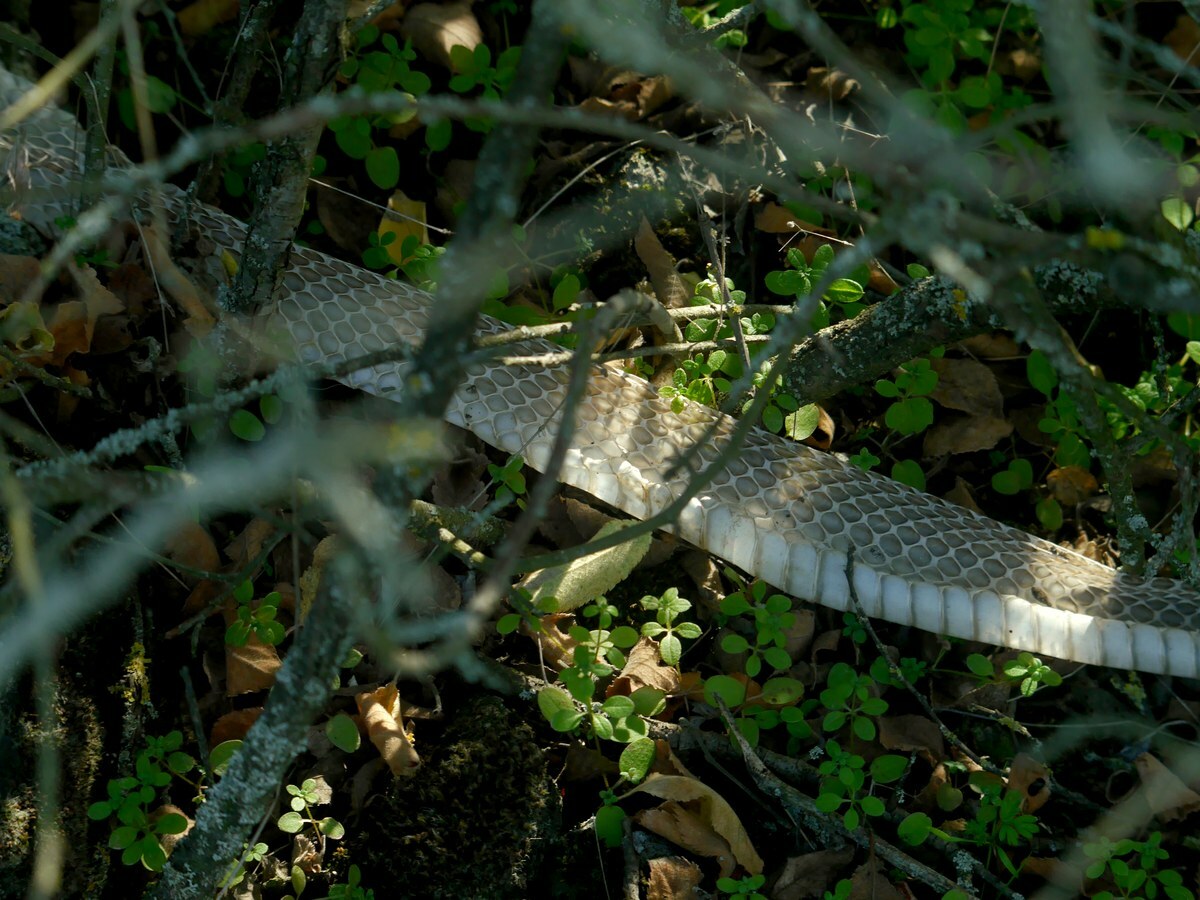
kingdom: Animalia
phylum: Chordata
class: Squamata
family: Colubridae
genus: Dolichophis
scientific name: Dolichophis caspius
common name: Large whip snake
